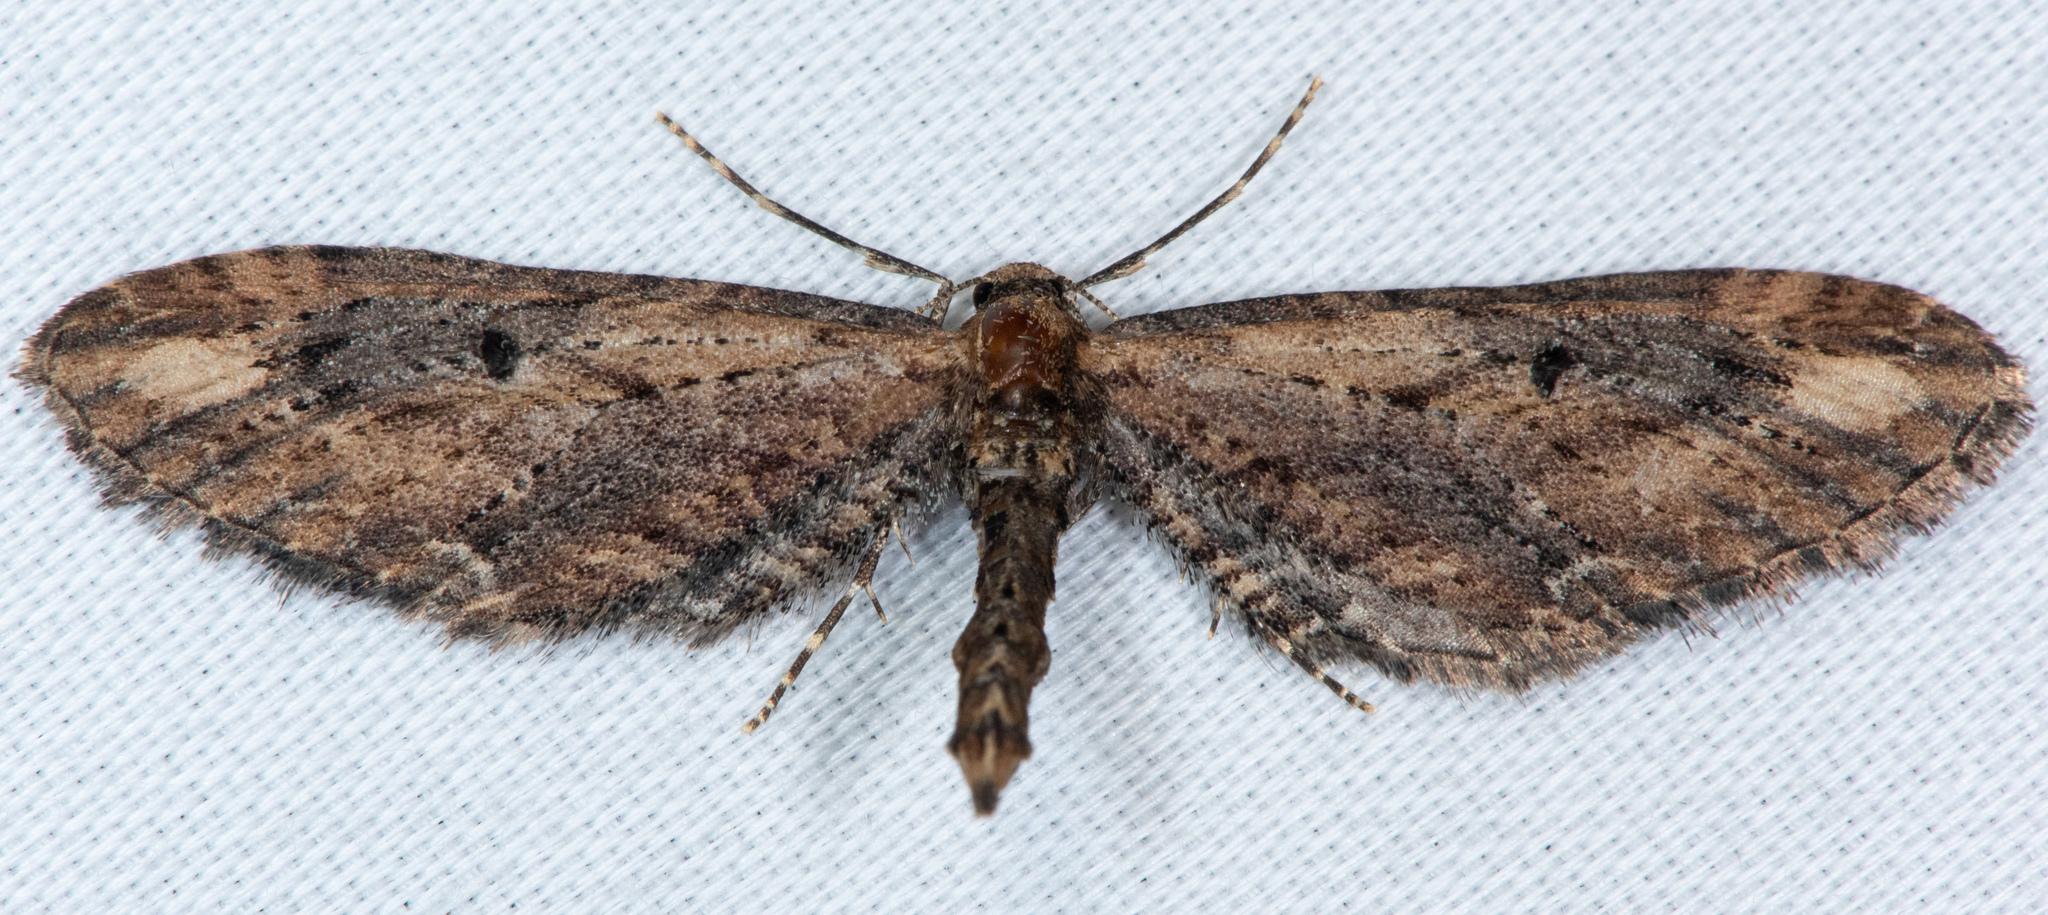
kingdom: Animalia
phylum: Arthropoda
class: Insecta
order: Lepidoptera
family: Geometridae
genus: Eupithecia
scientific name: Eupithecia subapicata
